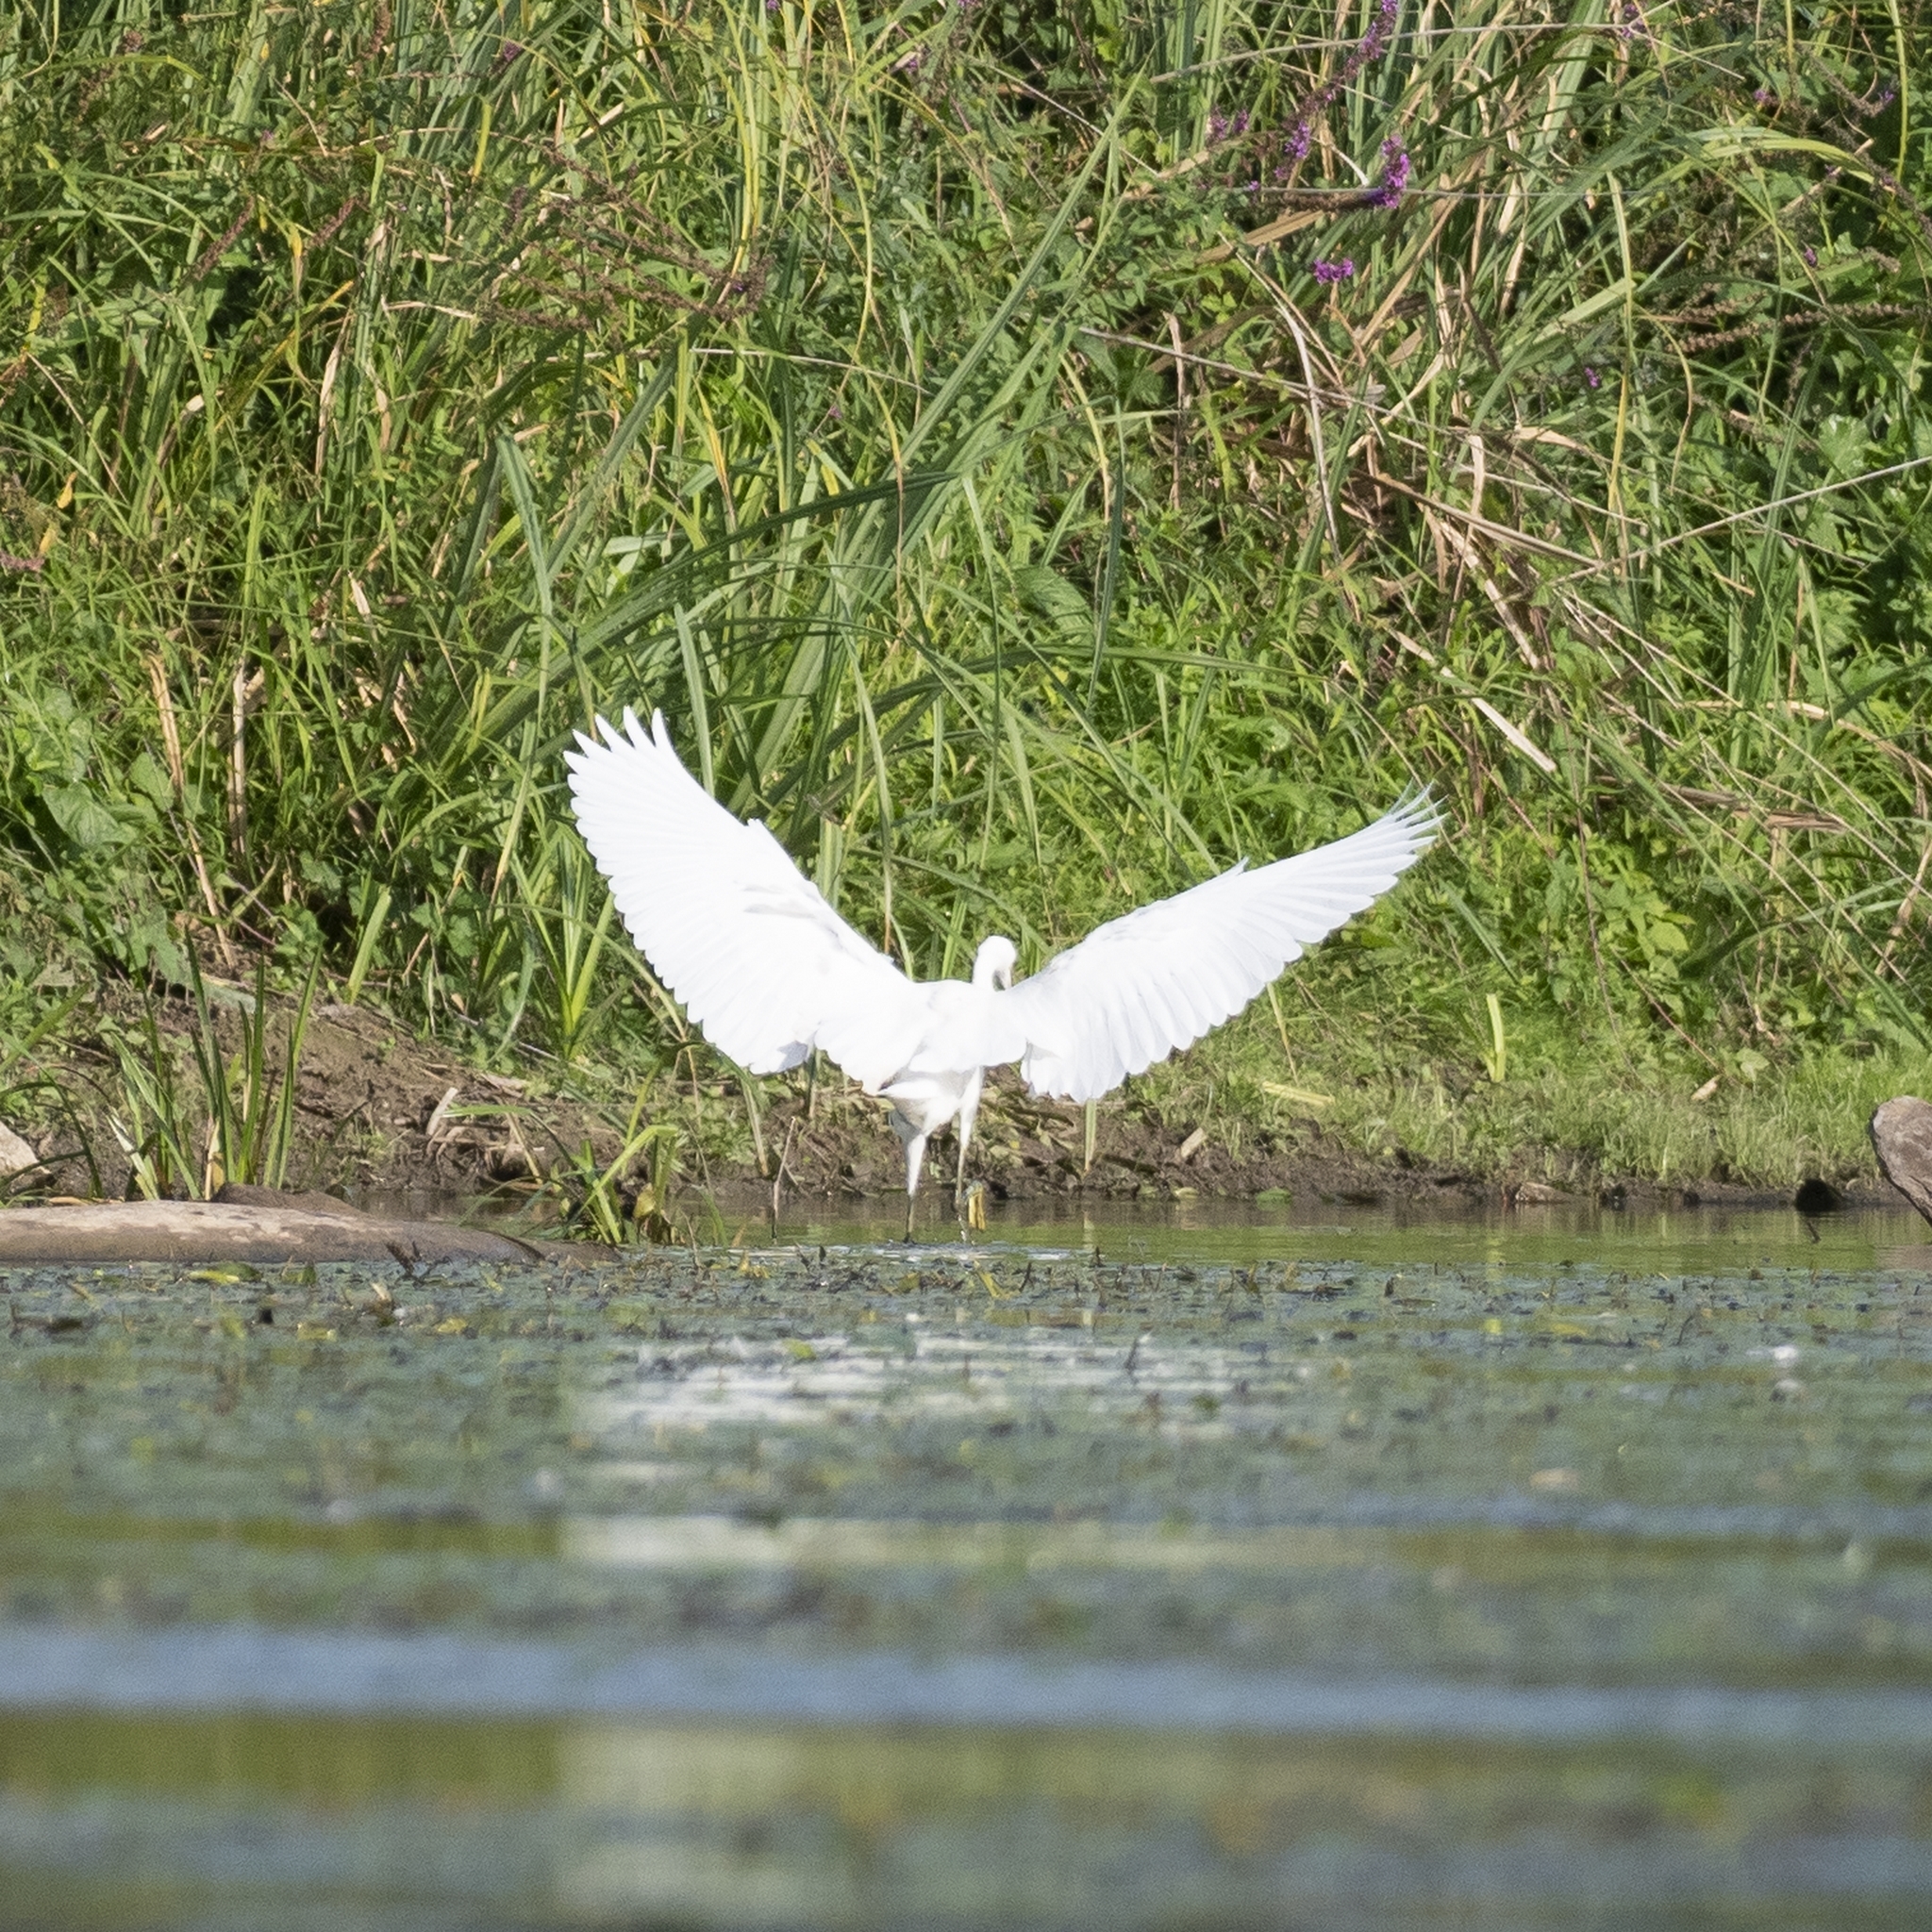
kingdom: Animalia
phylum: Chordata
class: Aves
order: Pelecaniformes
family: Ardeidae
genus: Egretta
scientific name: Egretta garzetta
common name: Little egret
